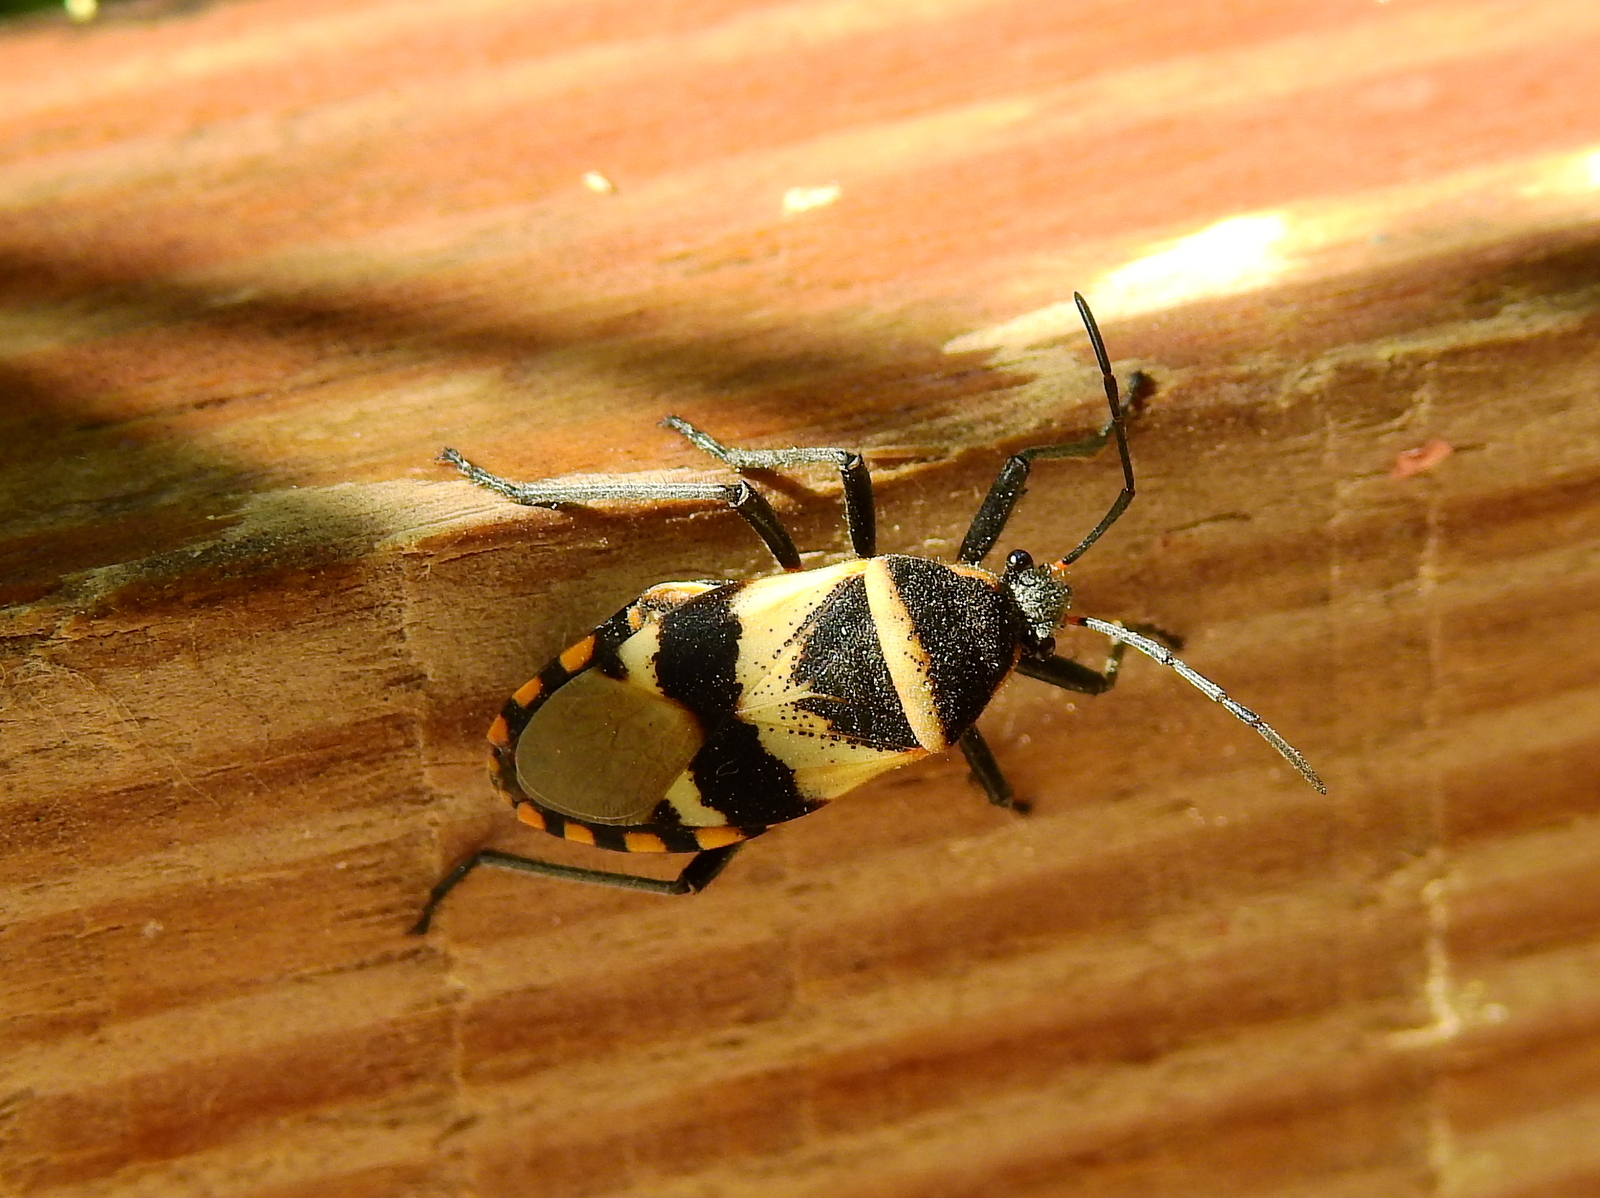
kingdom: Animalia
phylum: Arthropoda
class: Insecta
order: Hemiptera
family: Largidae
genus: Largus
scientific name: Largus fasciatus
